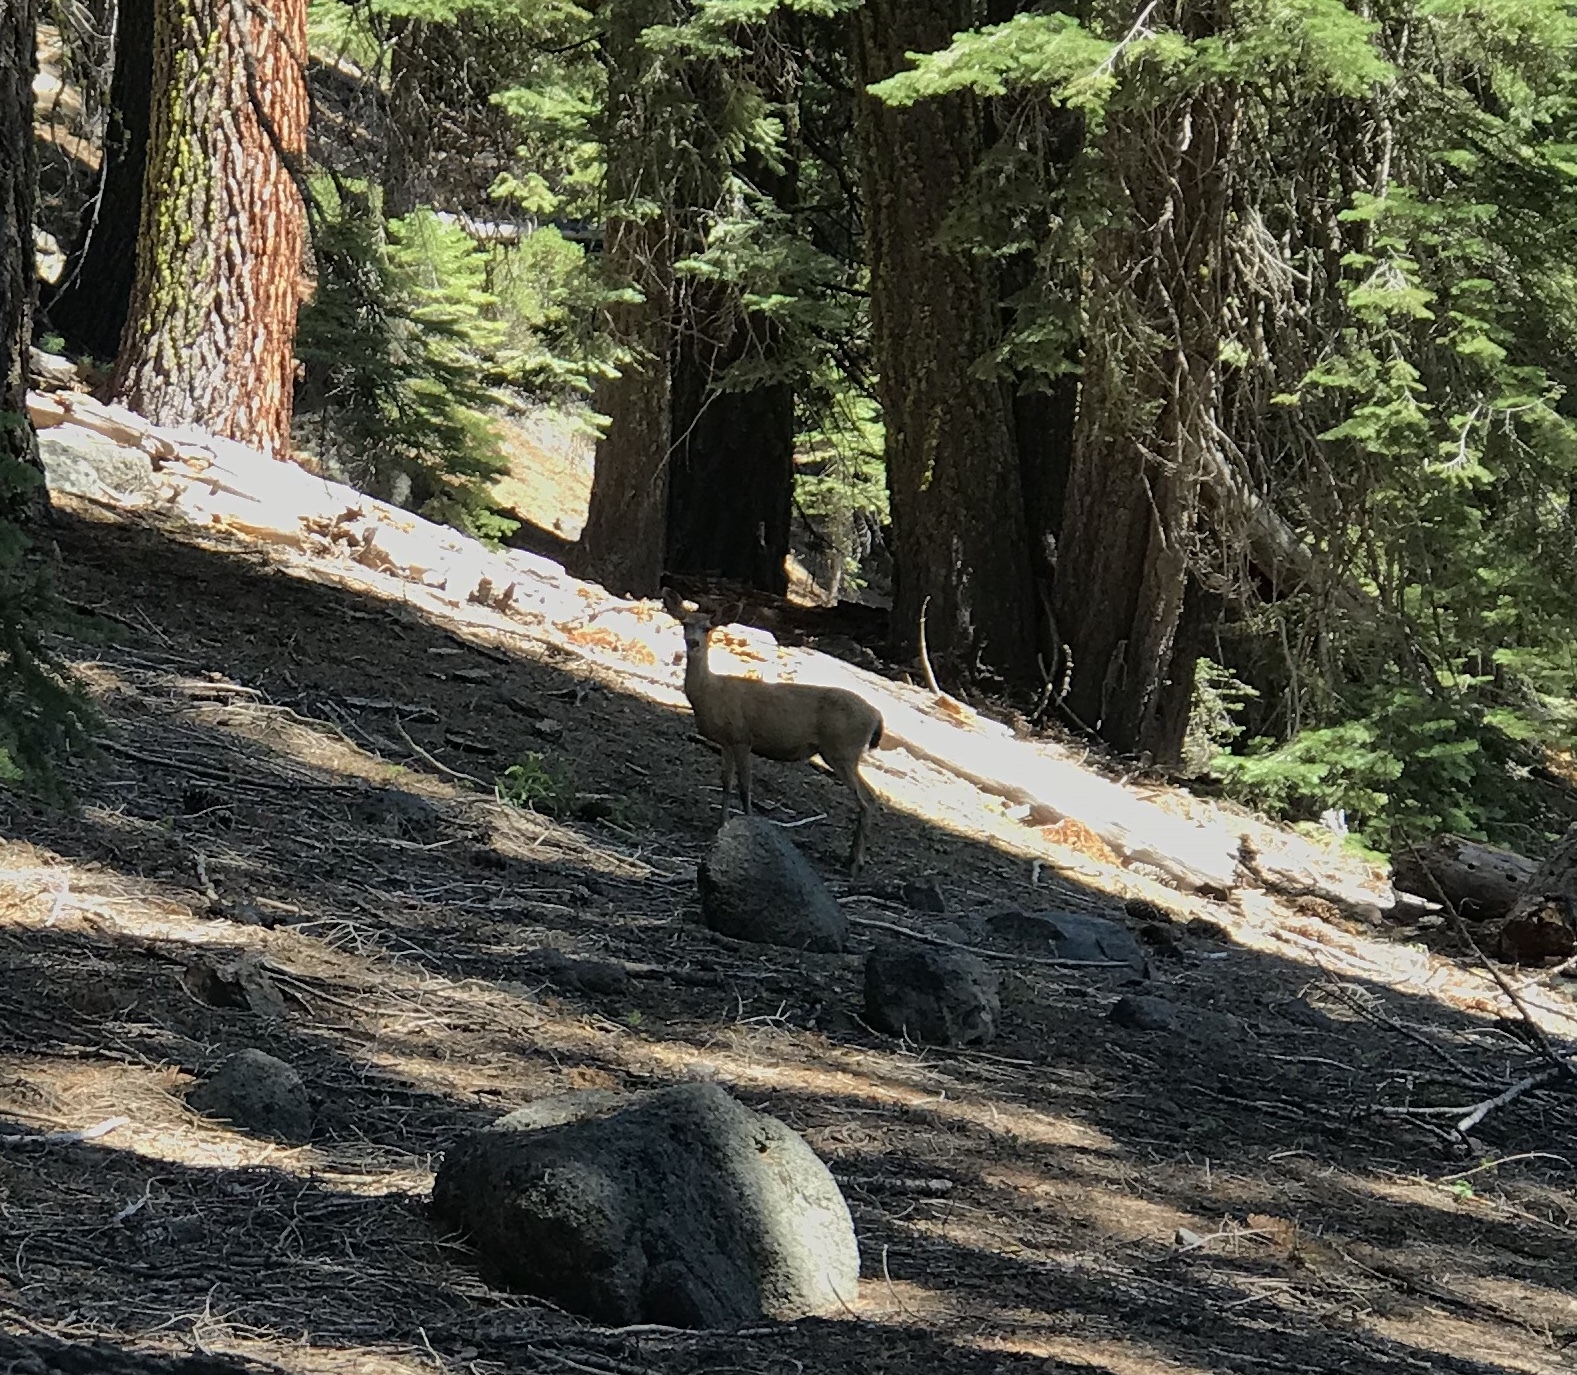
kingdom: Animalia
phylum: Chordata
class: Mammalia
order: Artiodactyla
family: Cervidae
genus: Odocoileus
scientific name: Odocoileus hemionus
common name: Mule deer
